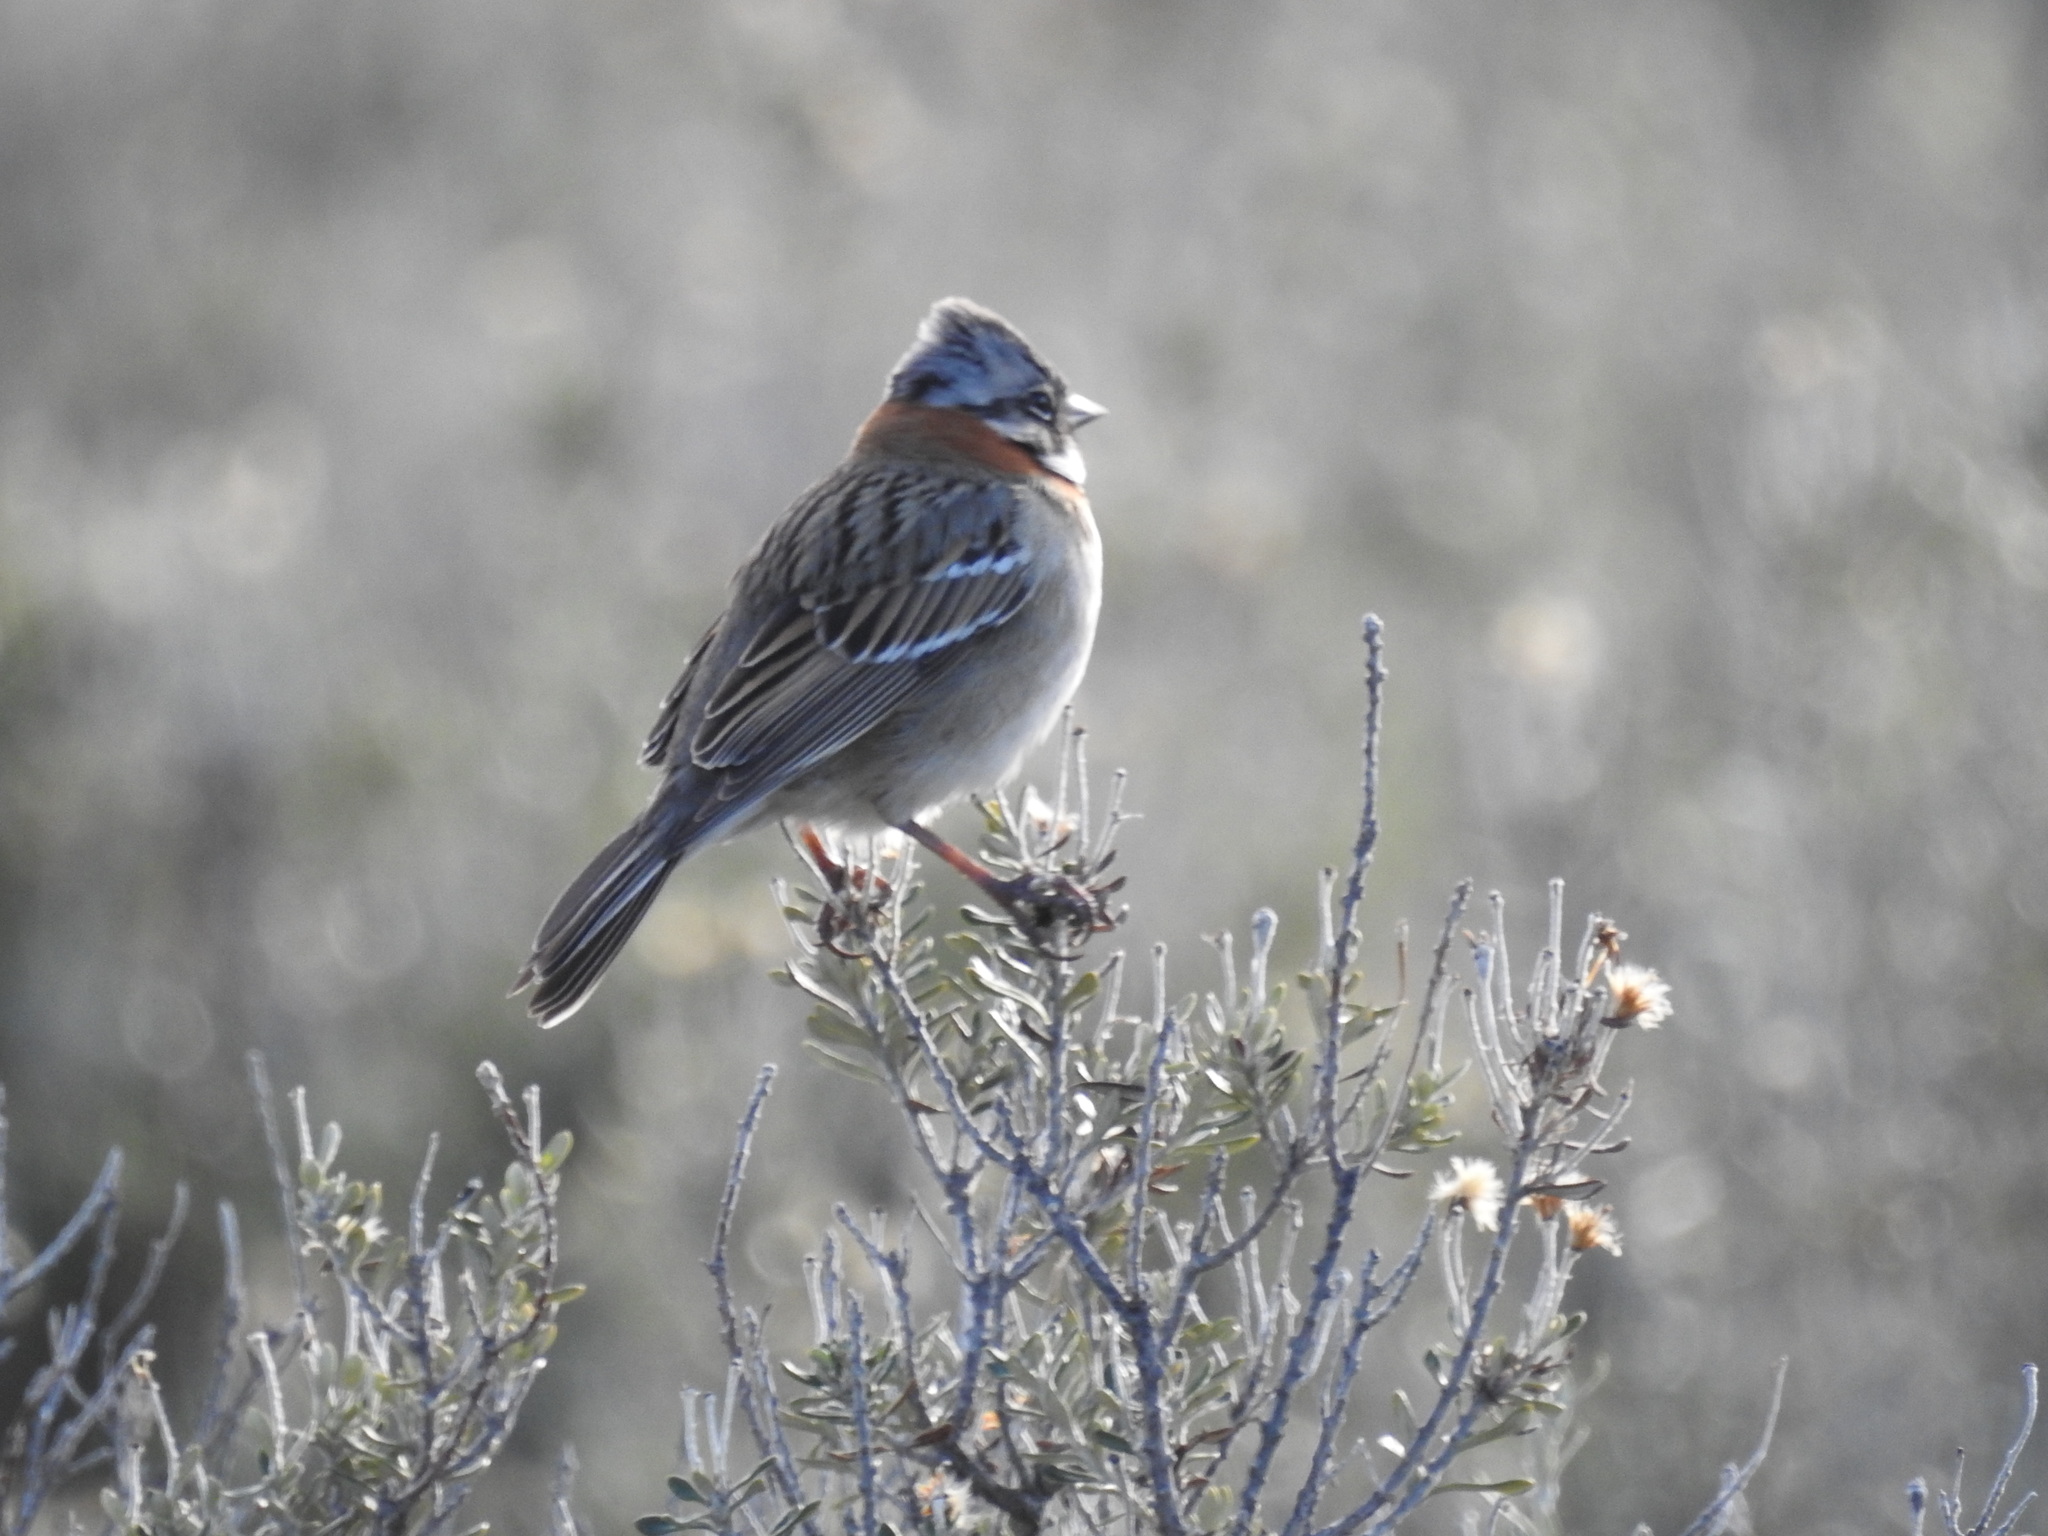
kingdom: Animalia
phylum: Chordata
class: Aves
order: Passeriformes
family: Passerellidae
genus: Zonotrichia
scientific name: Zonotrichia capensis
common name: Rufous-collared sparrow
